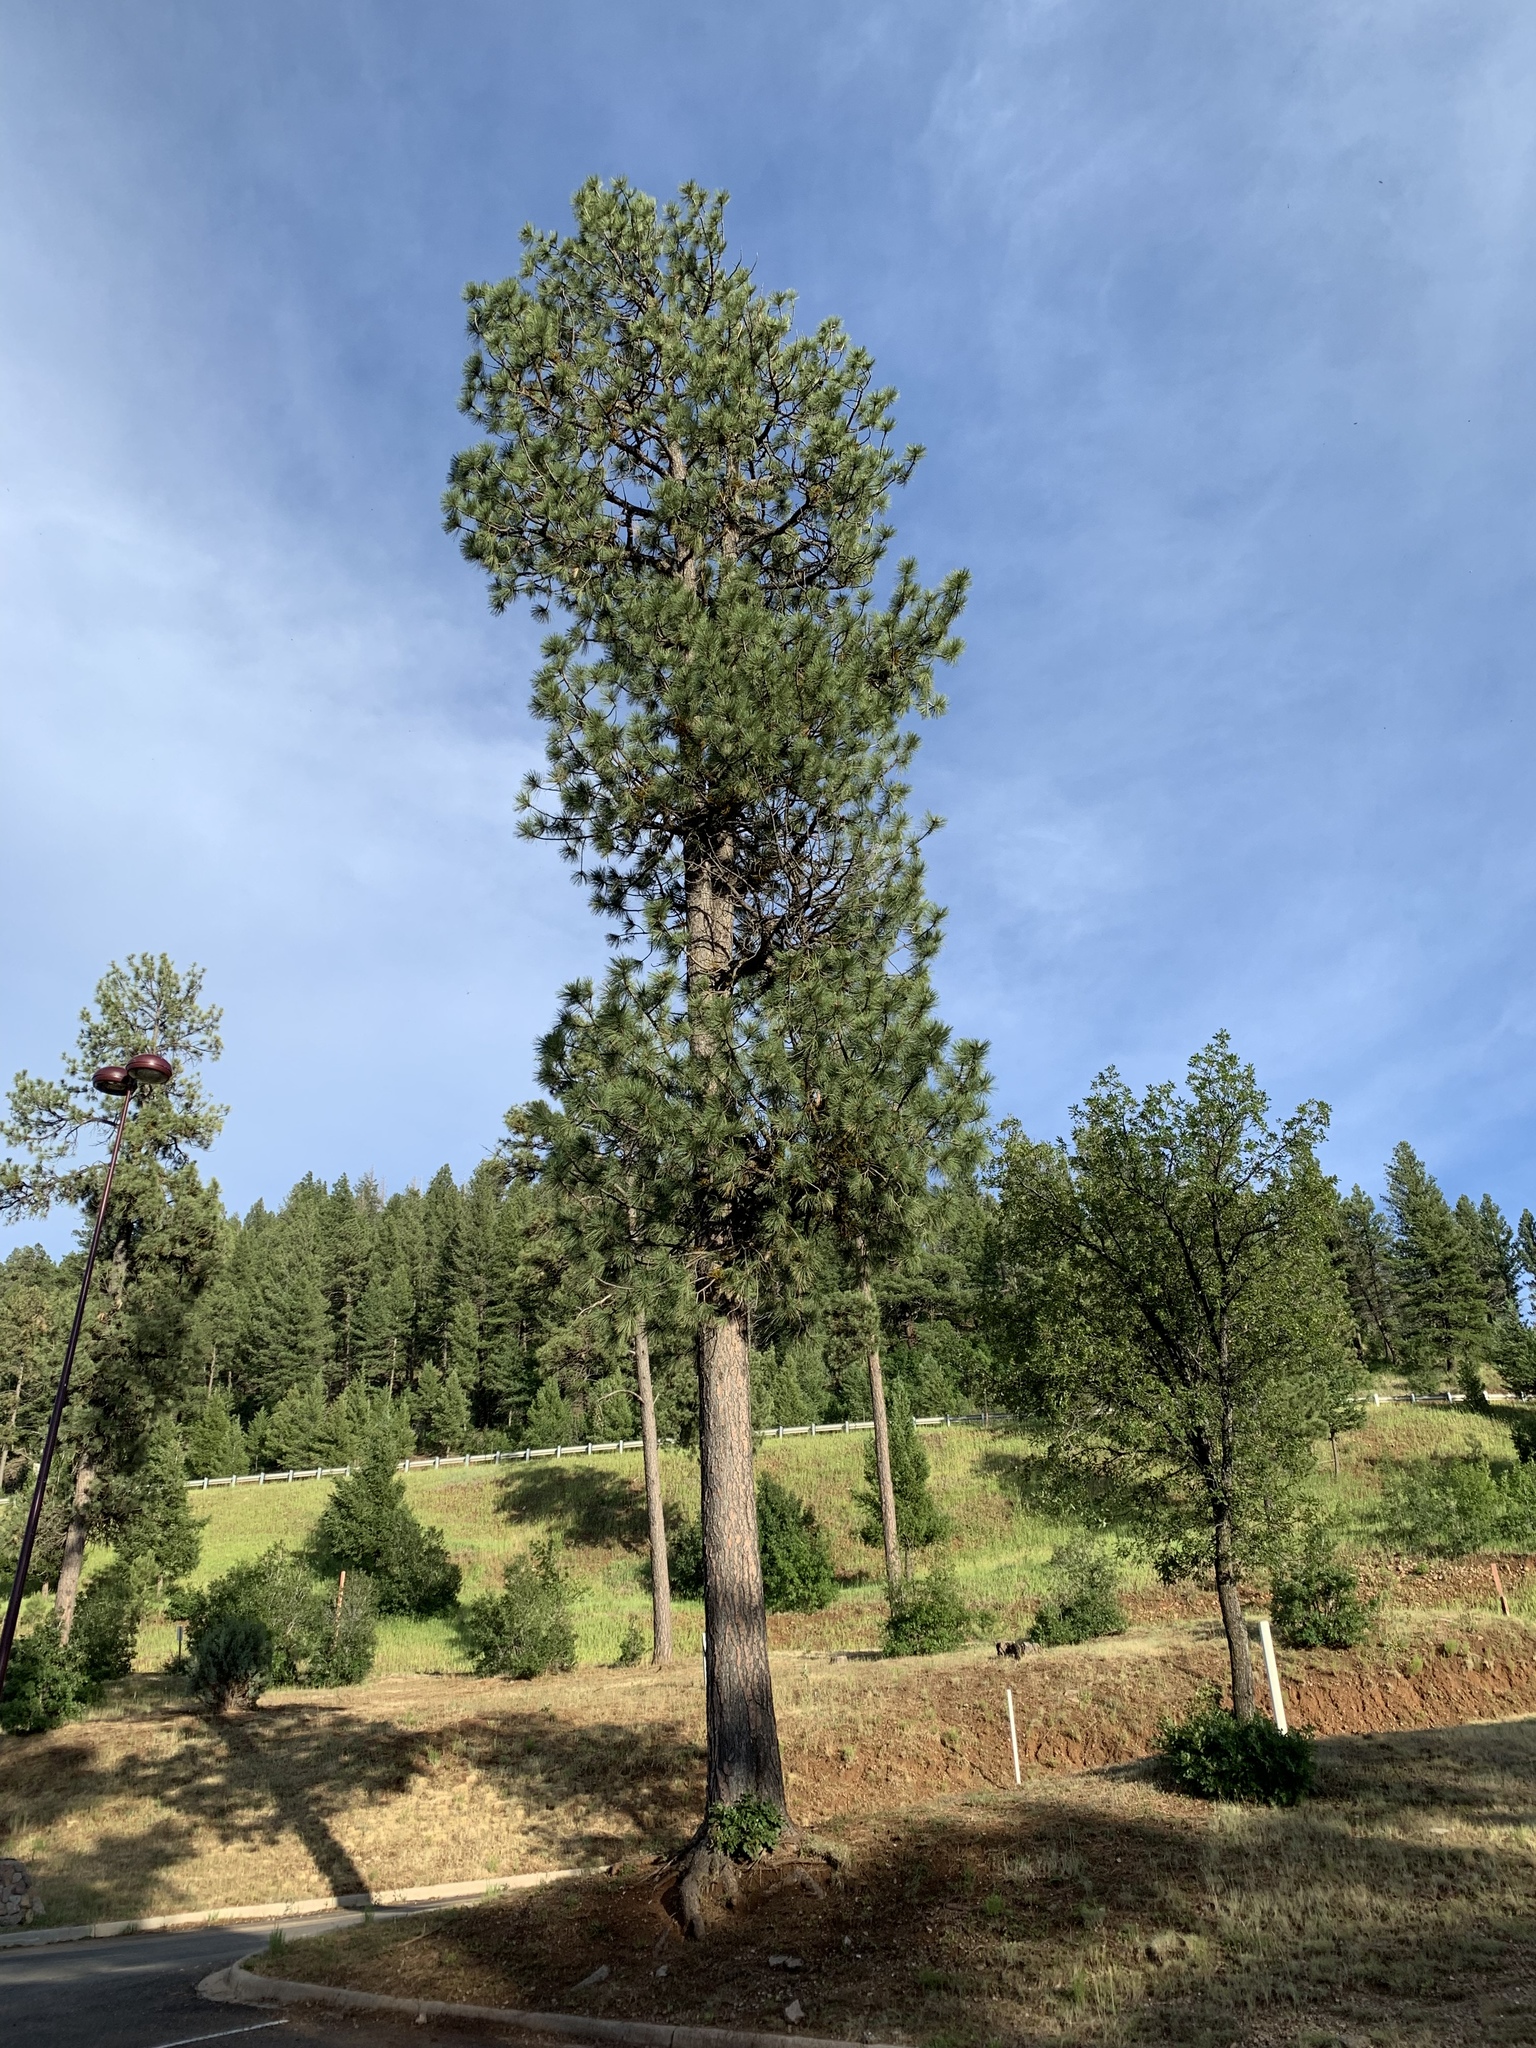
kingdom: Plantae
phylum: Tracheophyta
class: Pinopsida
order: Pinales
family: Pinaceae
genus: Pinus
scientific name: Pinus ponderosa
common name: Western yellow-pine
